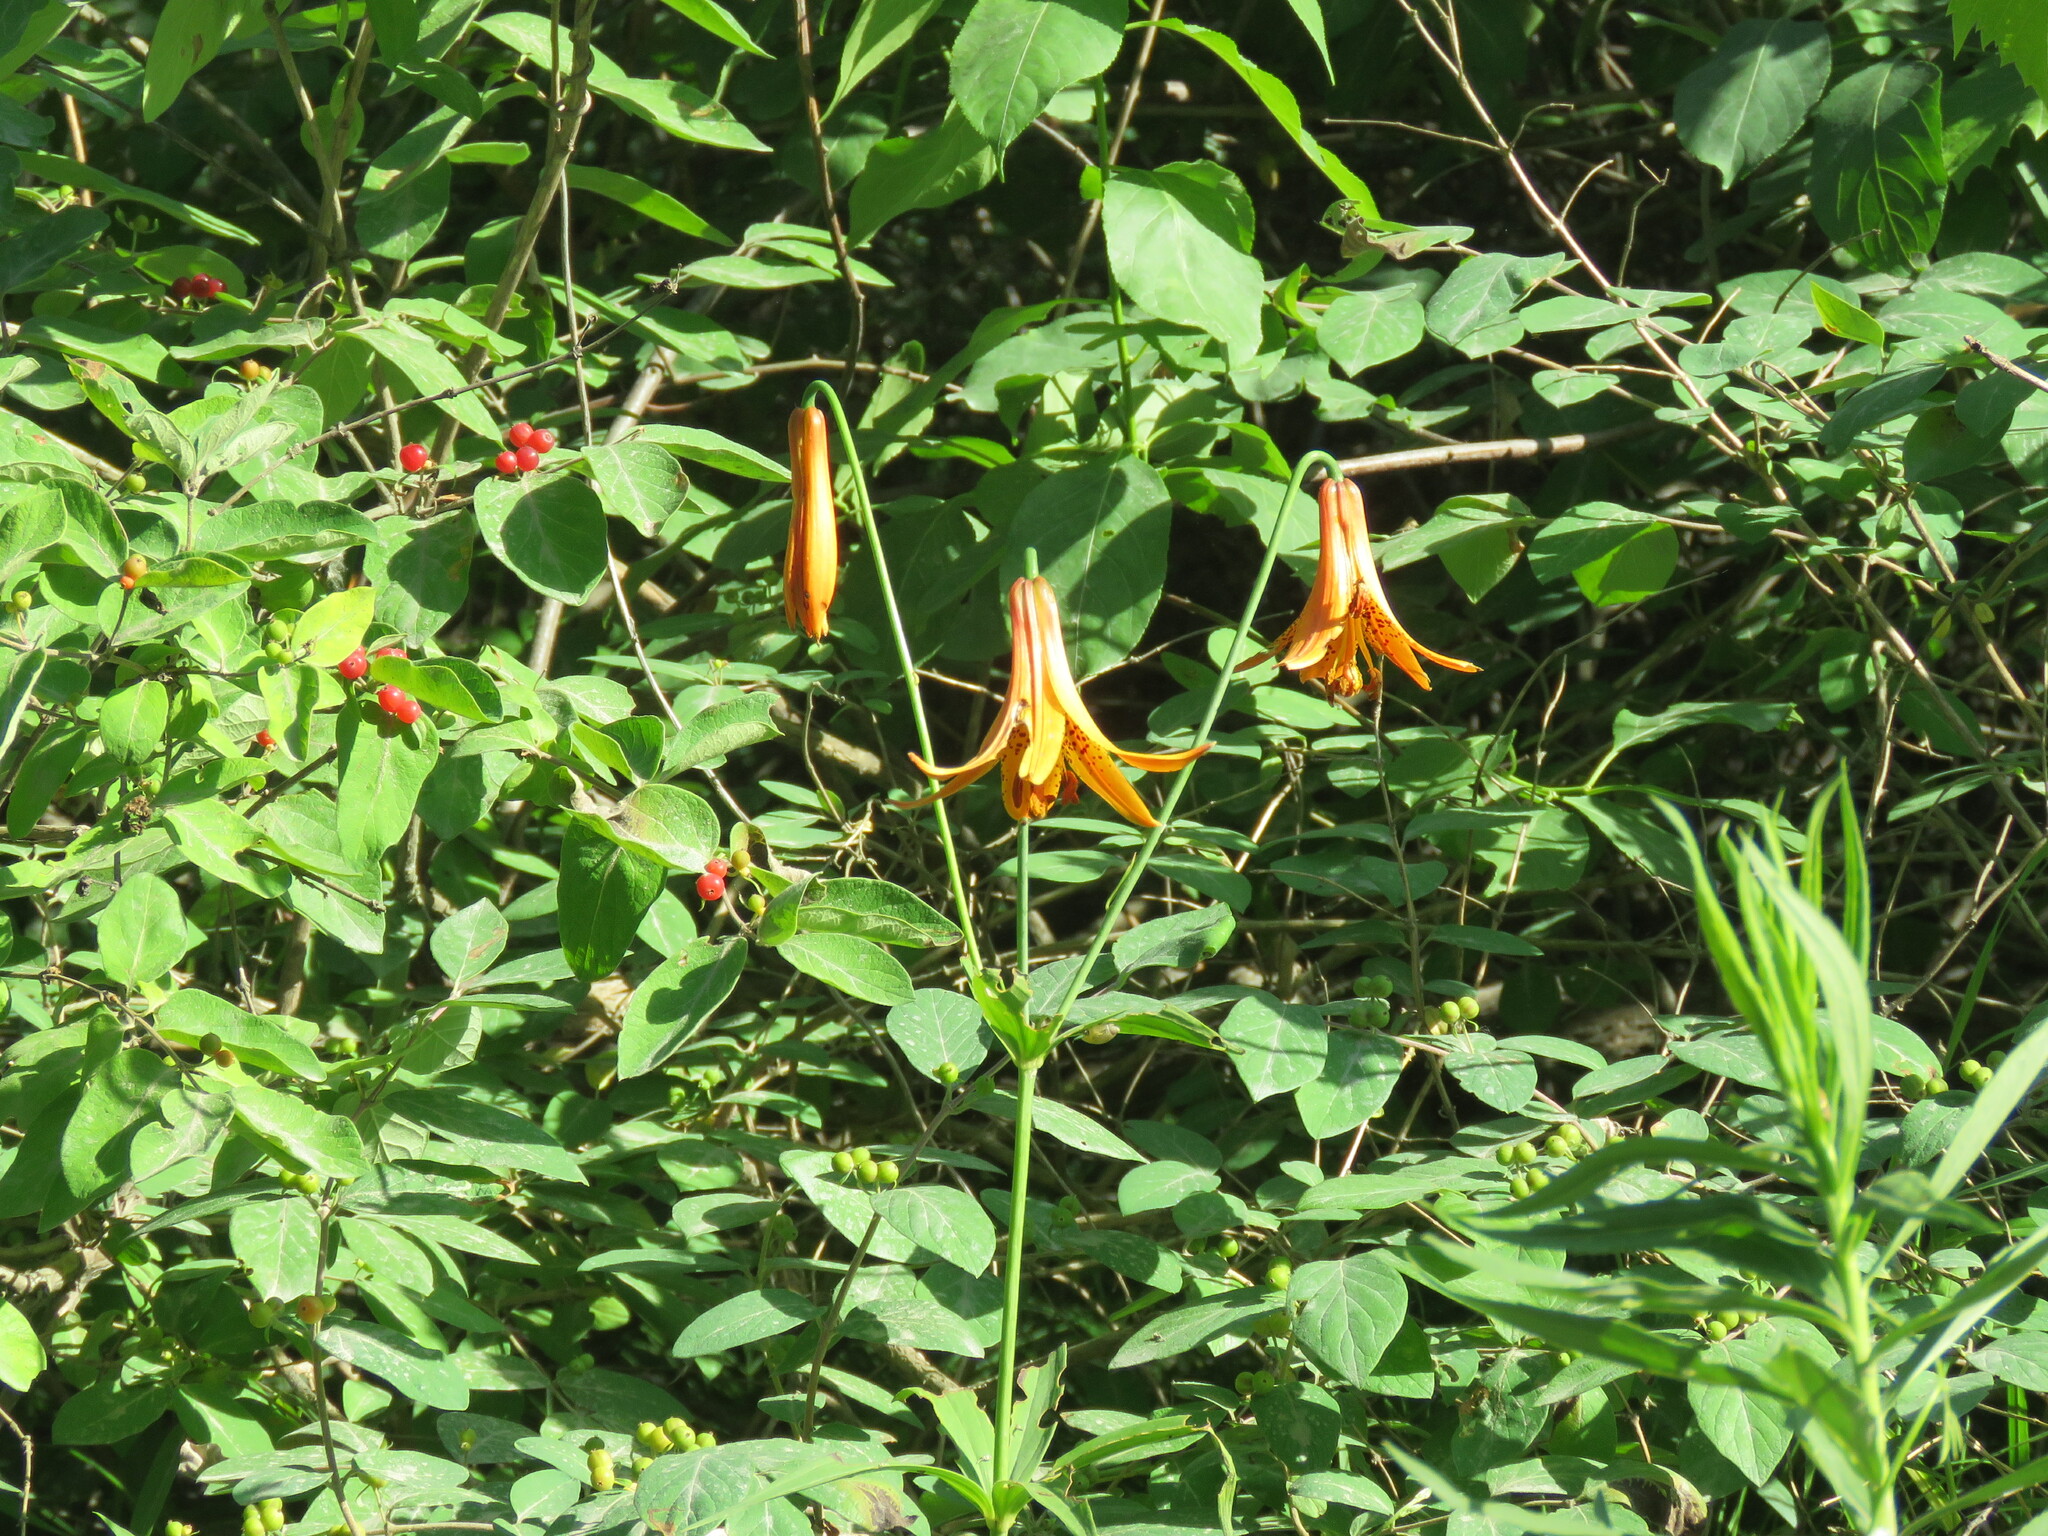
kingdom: Plantae
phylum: Tracheophyta
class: Liliopsida
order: Liliales
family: Liliaceae
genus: Lilium
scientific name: Lilium canadense
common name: Canada lily
